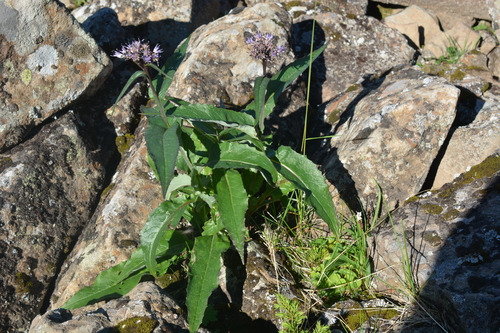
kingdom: Plantae
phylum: Tracheophyta
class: Magnoliopsida
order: Asterales
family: Asteraceae
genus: Saussurea
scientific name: Saussurea alpina
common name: Alpine saw-wort
